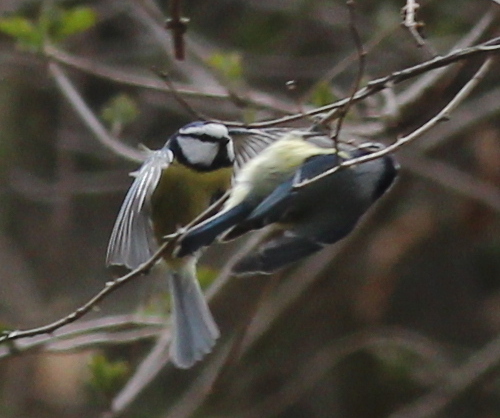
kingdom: Animalia
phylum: Chordata
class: Aves
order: Passeriformes
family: Paridae
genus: Cyanistes
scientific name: Cyanistes caeruleus
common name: Eurasian blue tit
